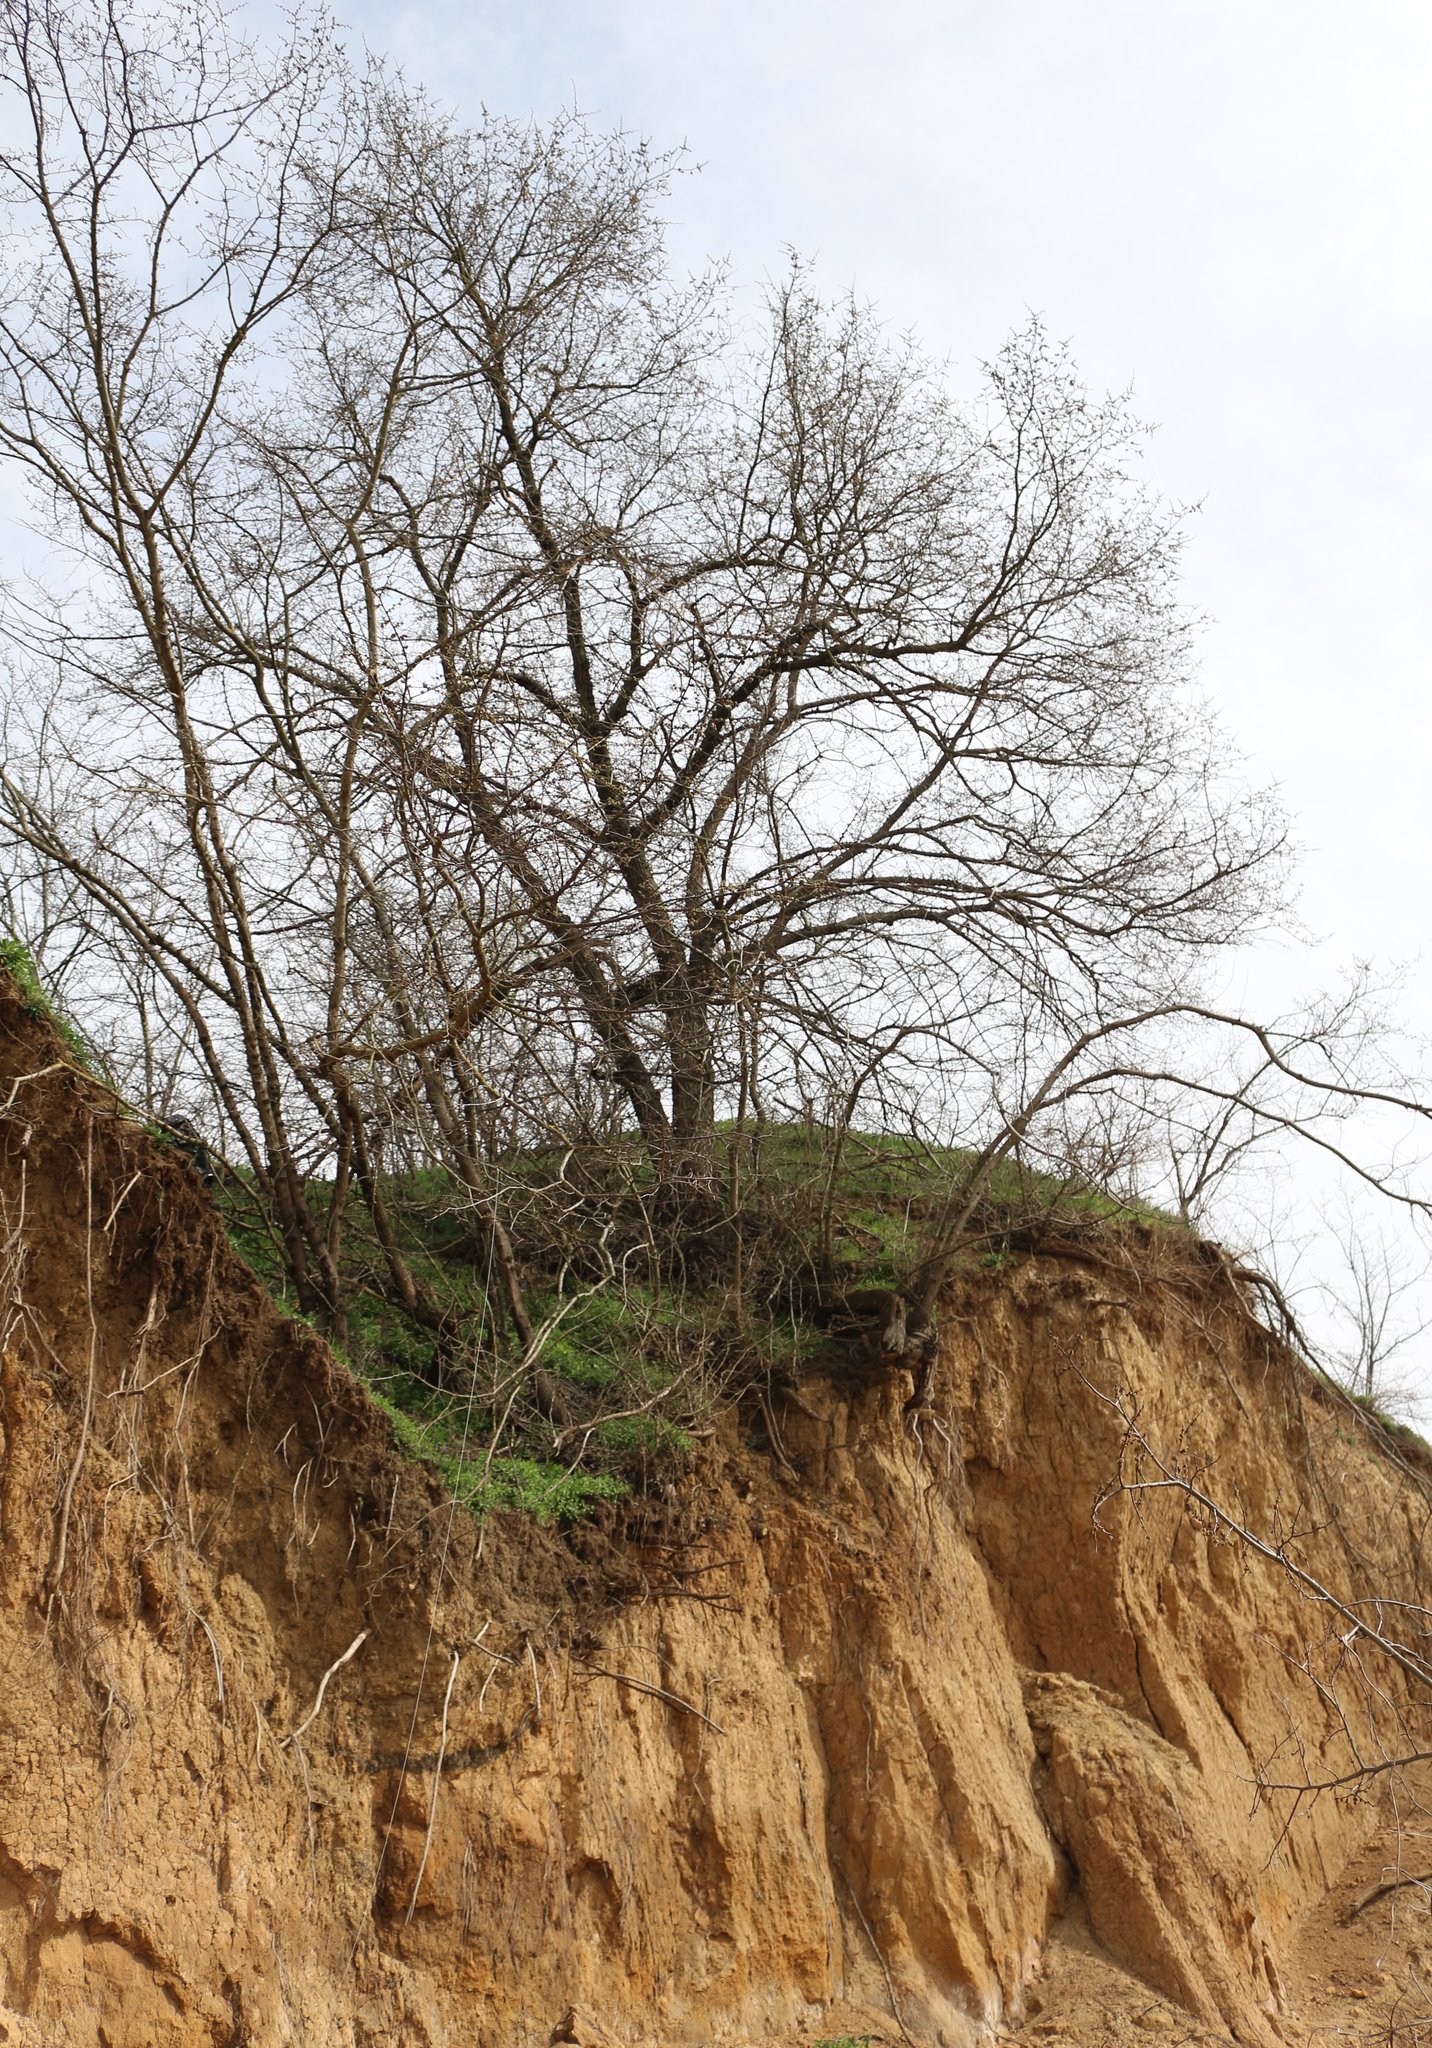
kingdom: Plantae
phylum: Tracheophyta
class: Magnoliopsida
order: Rosales
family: Ulmaceae
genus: Ulmus
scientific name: Ulmus minor
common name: Small-leaved elm
